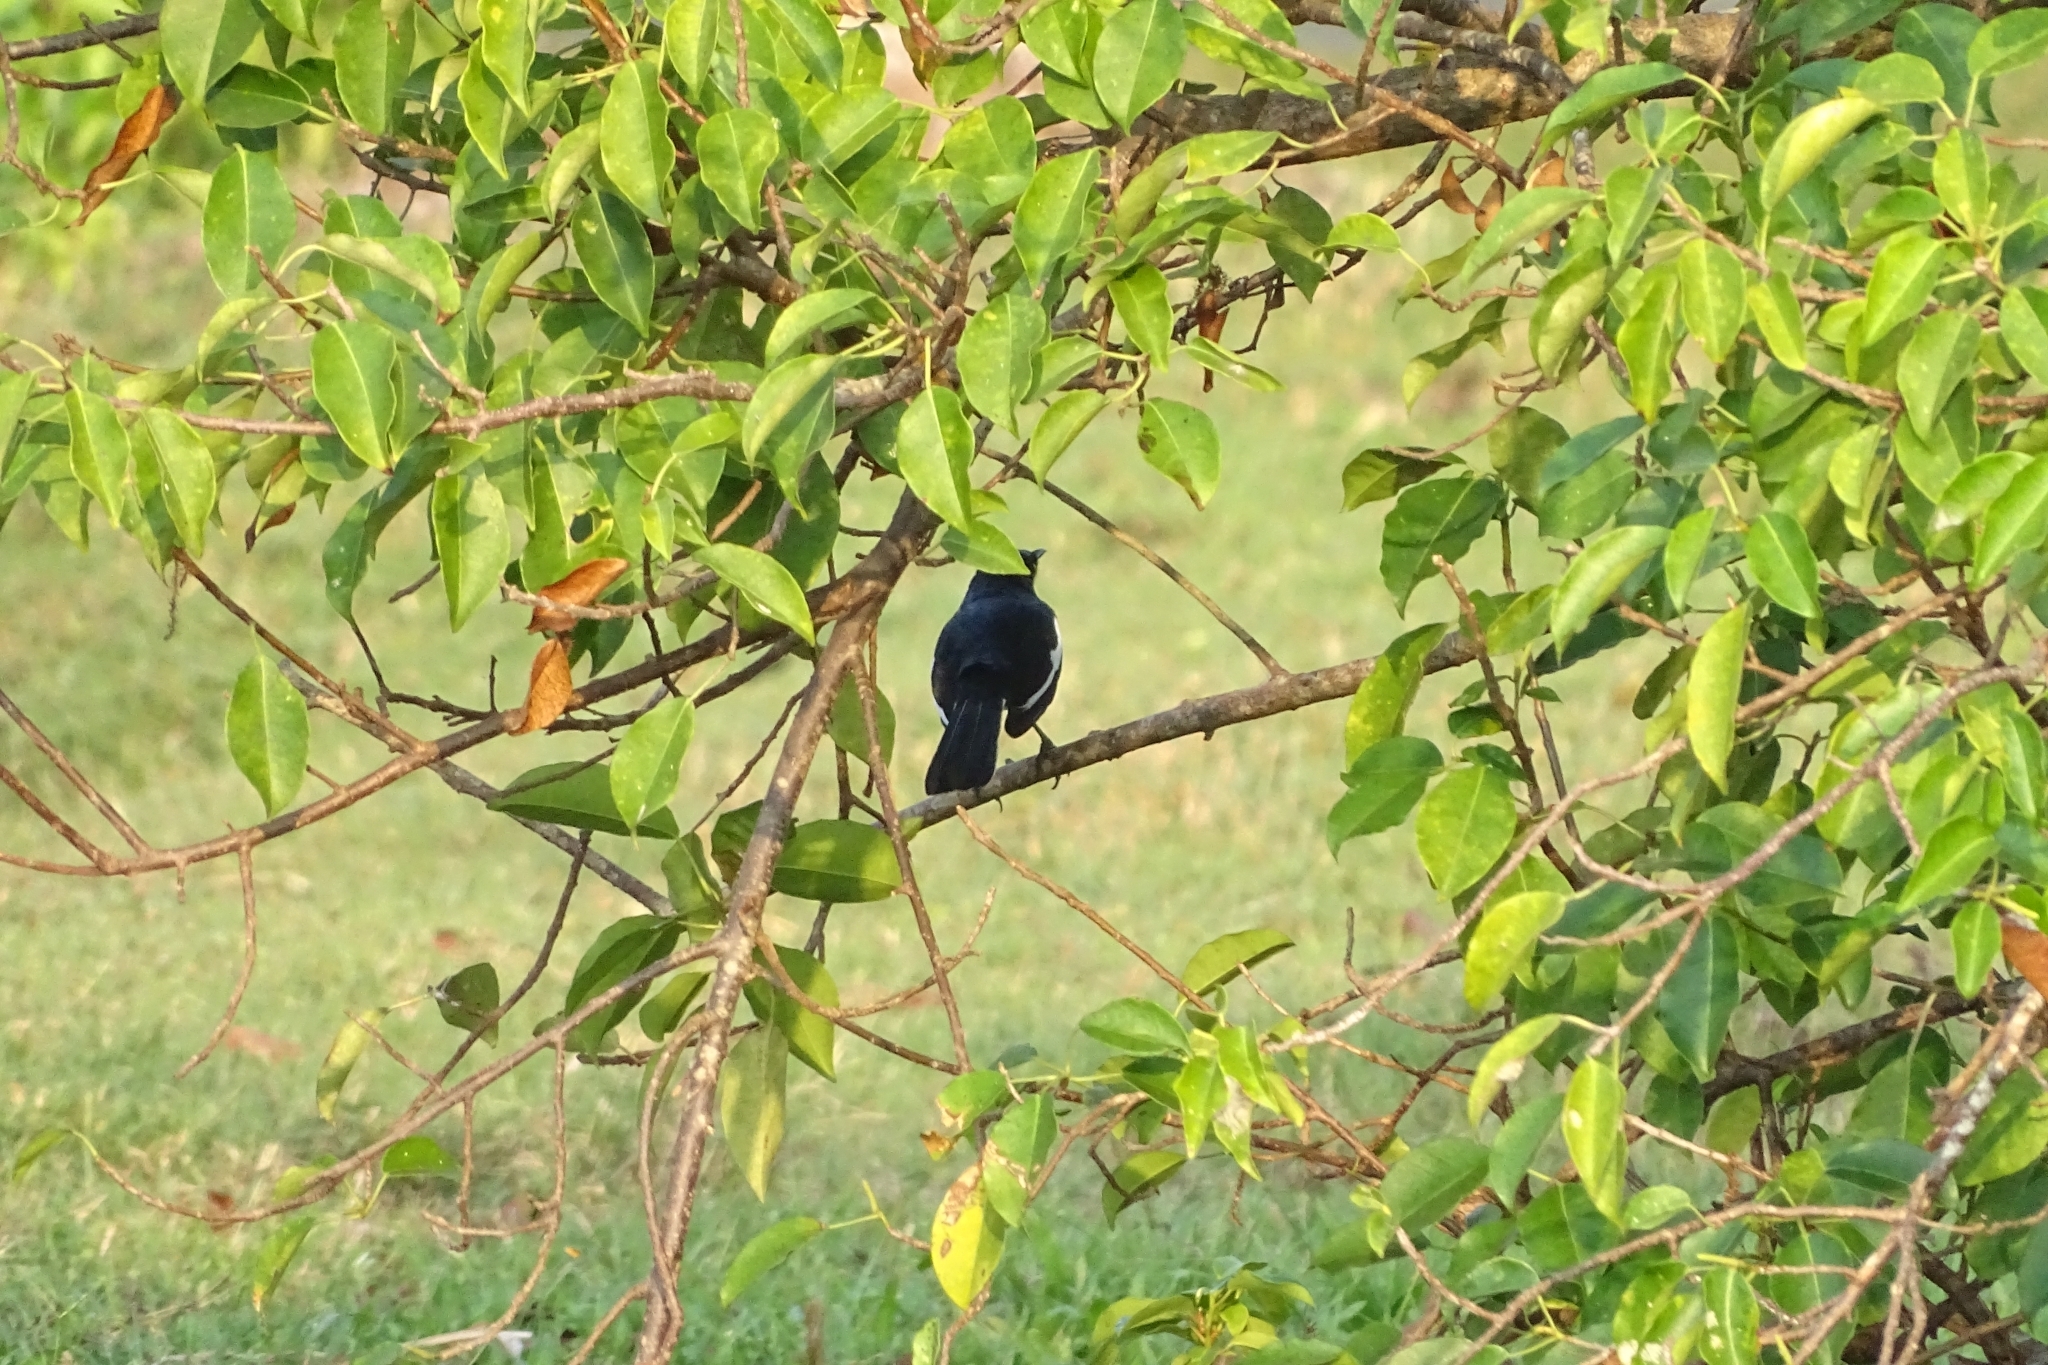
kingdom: Animalia
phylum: Chordata
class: Aves
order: Passeriformes
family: Muscicapidae
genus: Copsychus
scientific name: Copsychus saularis
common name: Oriental magpie-robin
